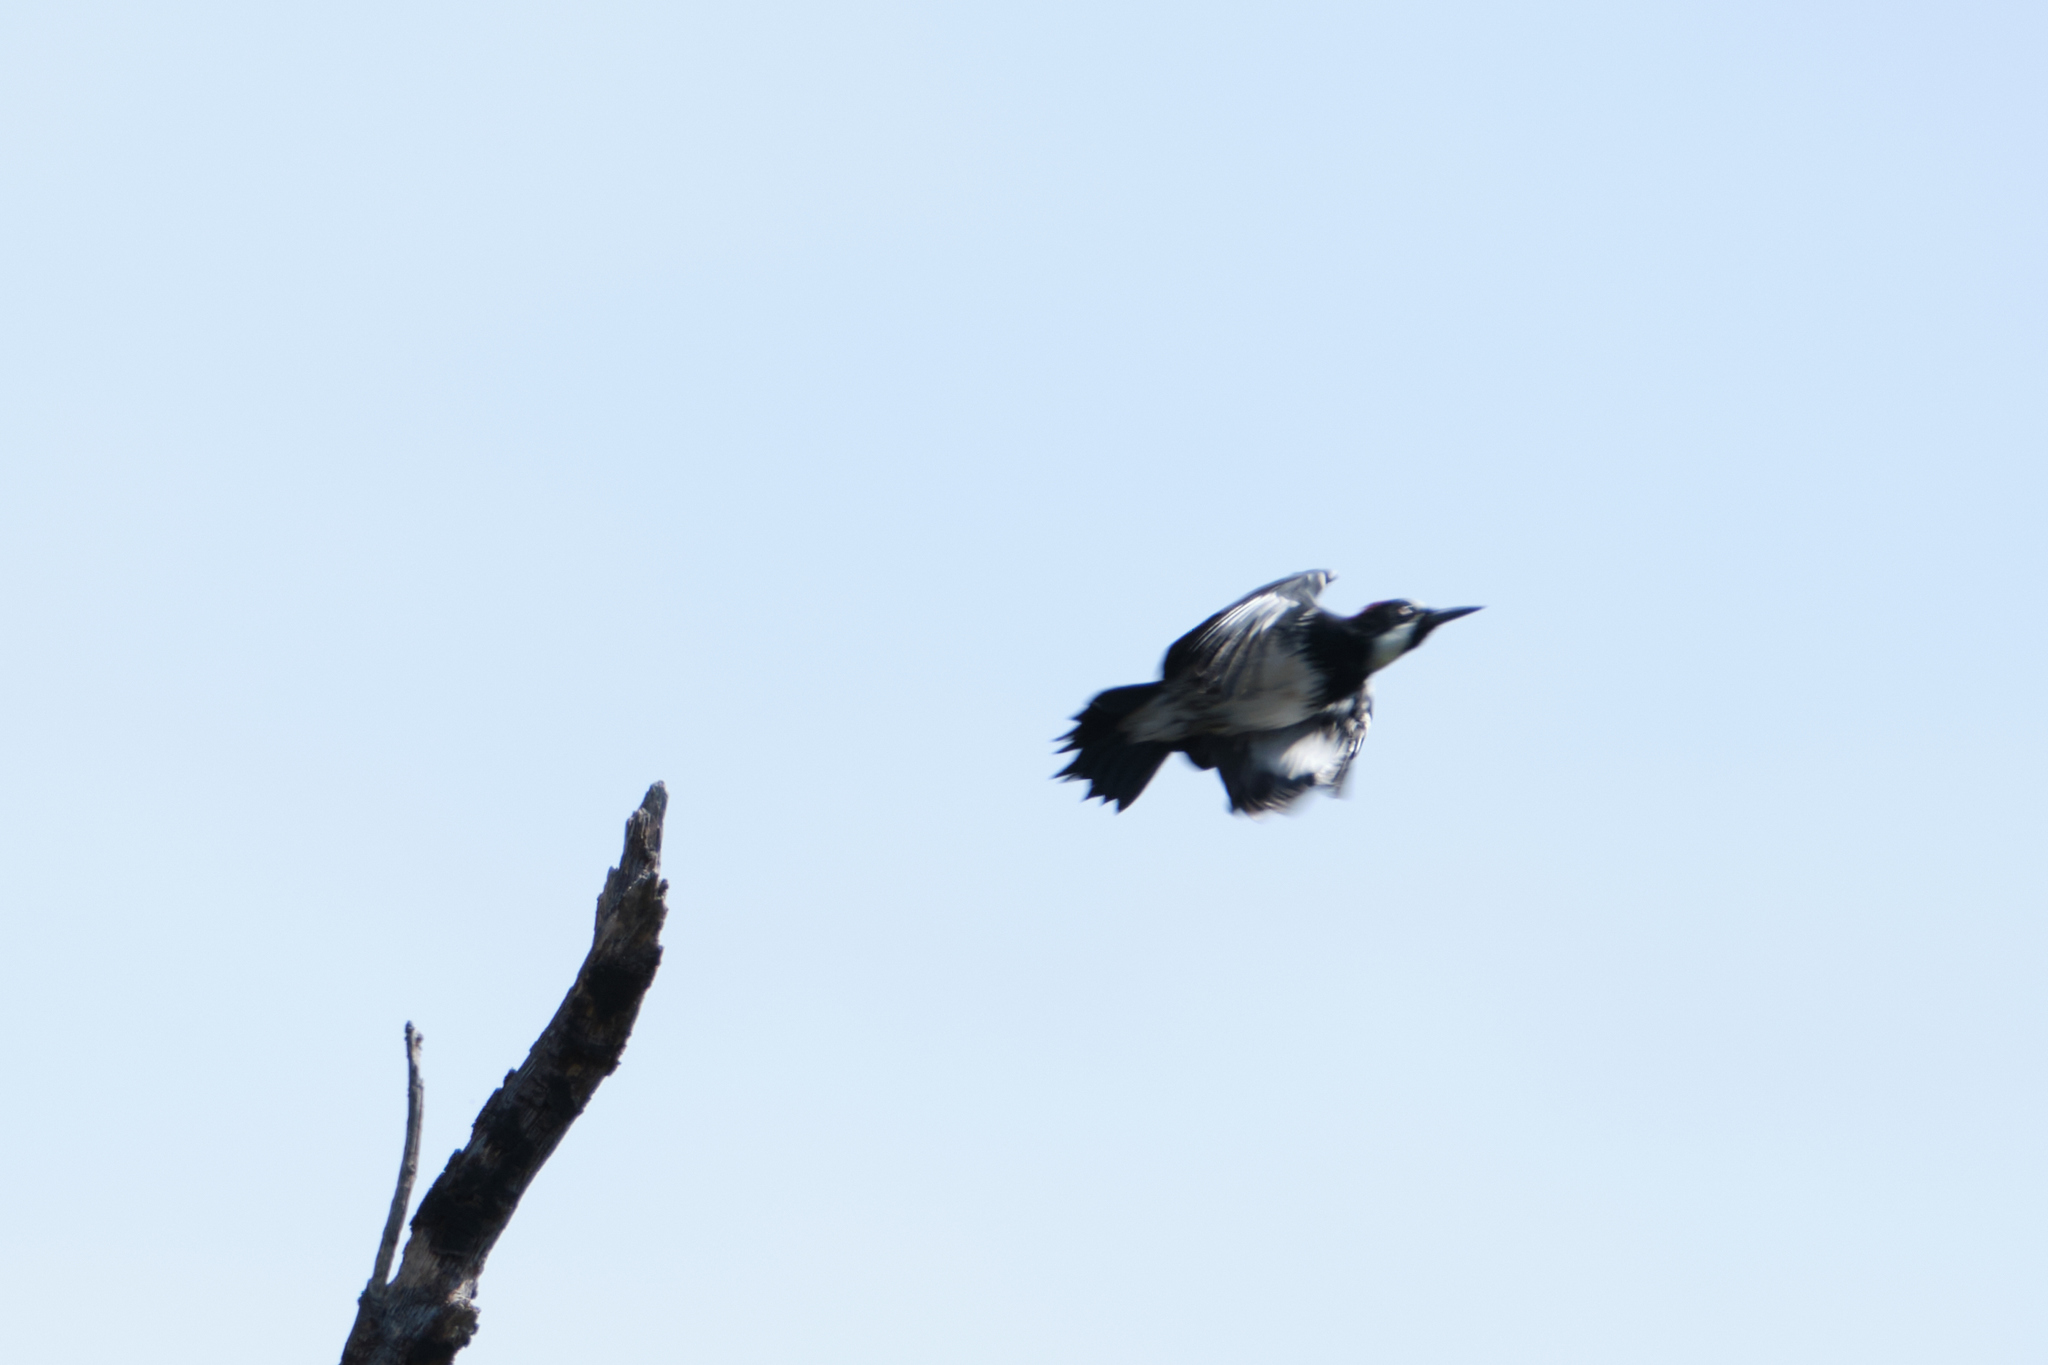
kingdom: Animalia
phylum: Chordata
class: Aves
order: Piciformes
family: Picidae
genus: Melanerpes
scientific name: Melanerpes formicivorus
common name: Acorn woodpecker
